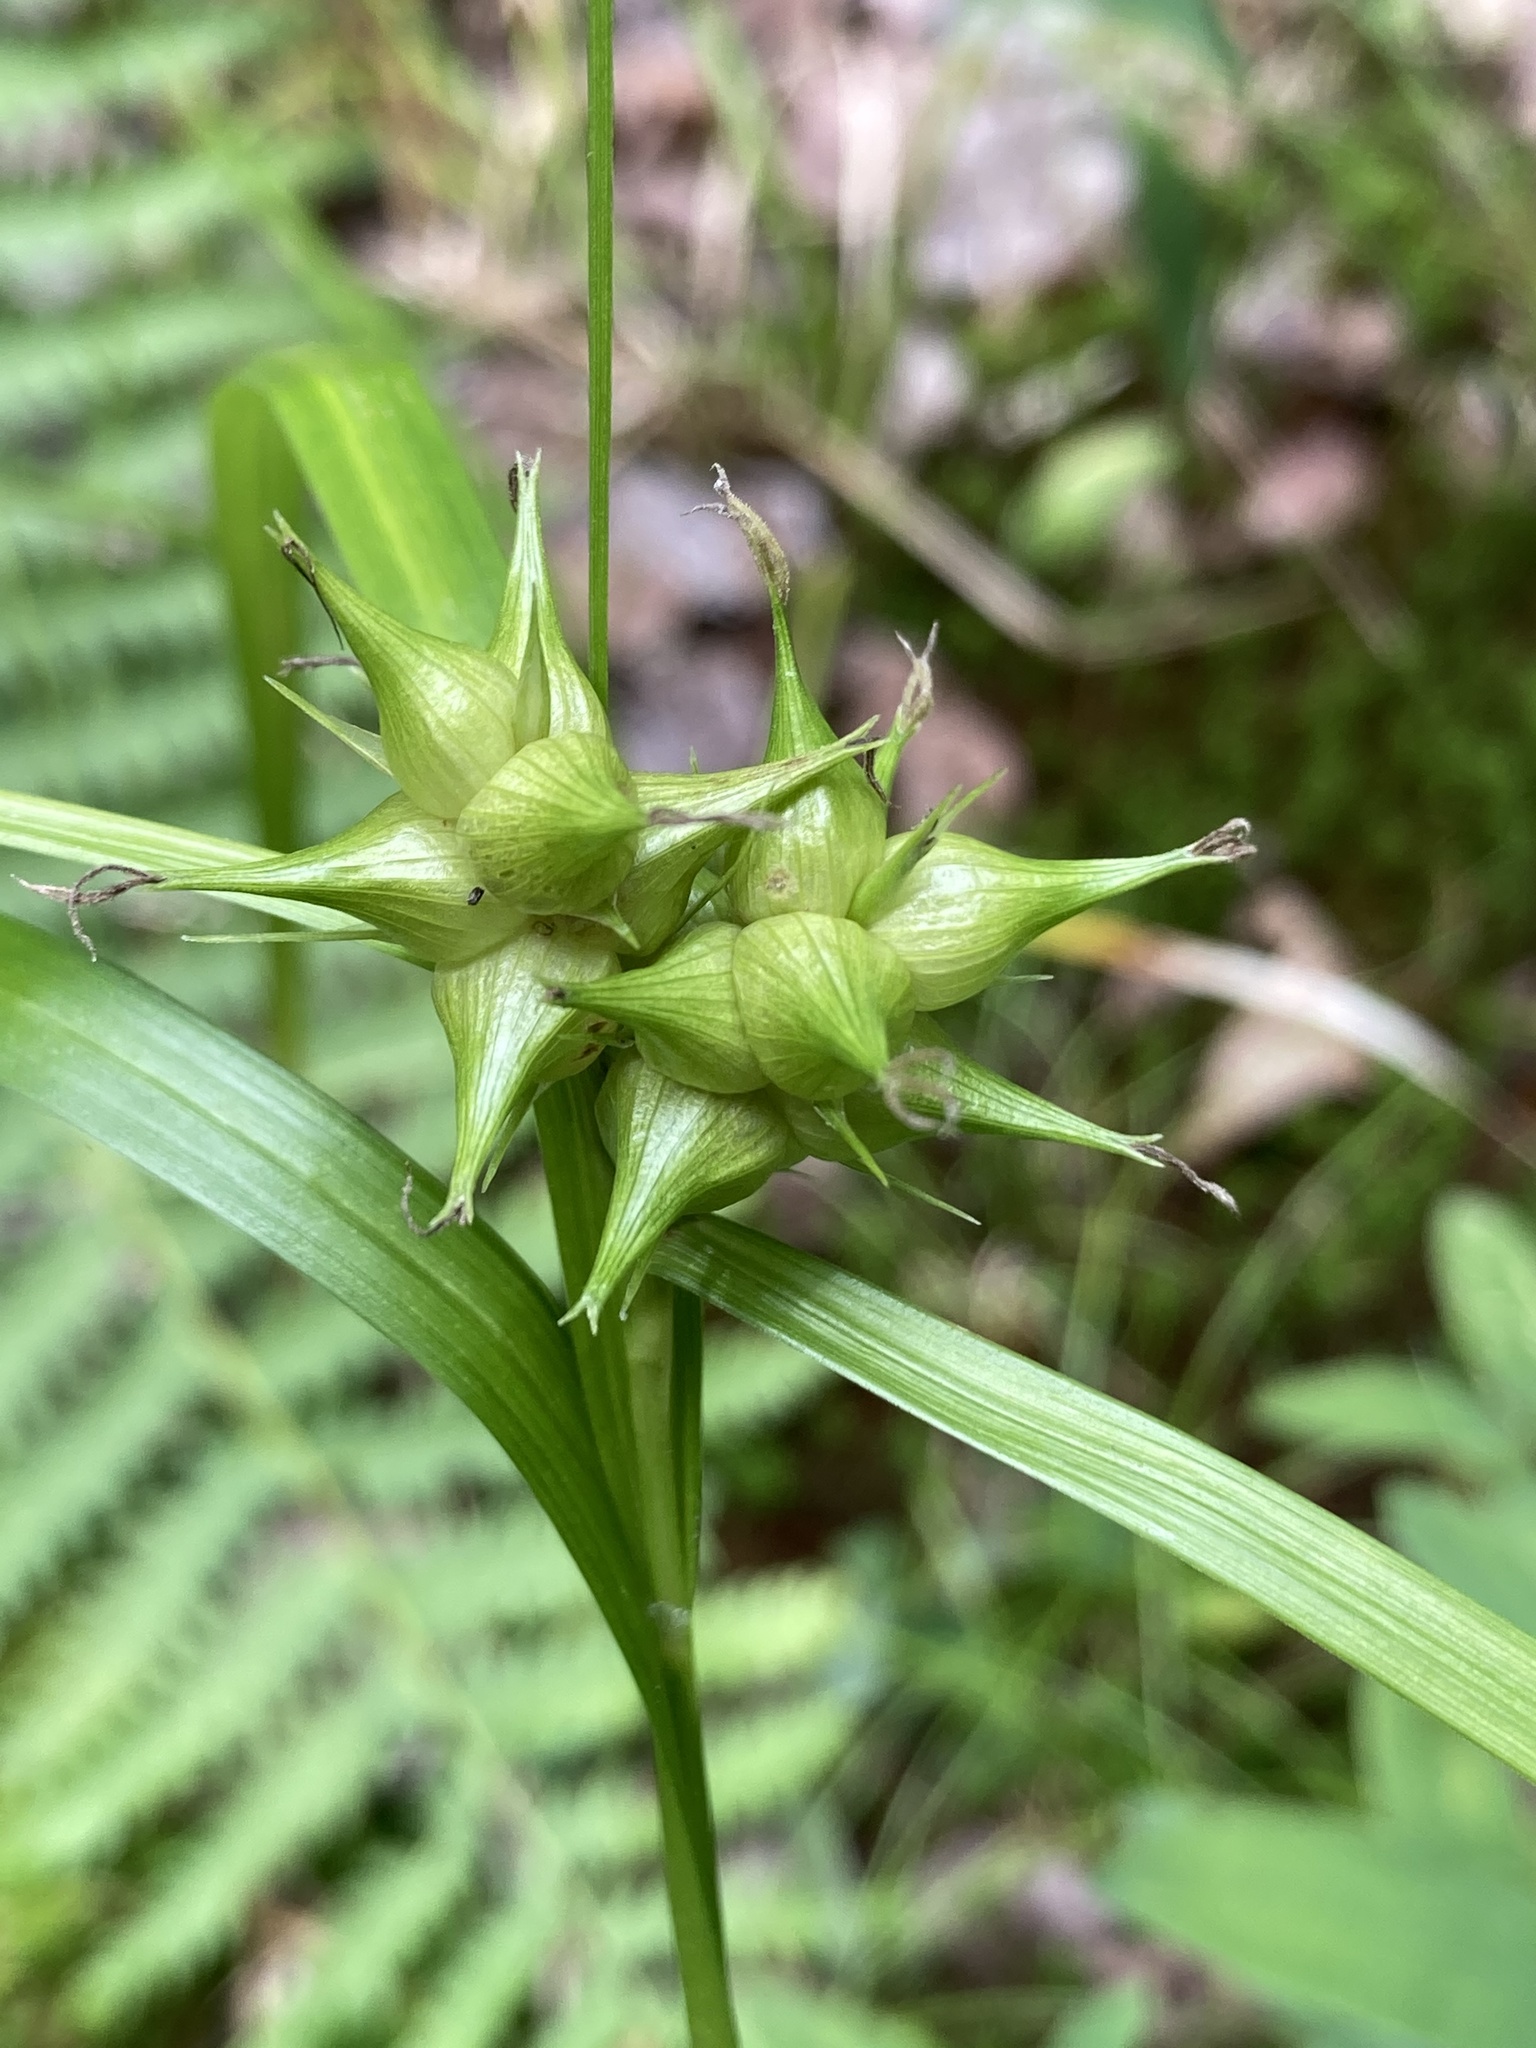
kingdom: Plantae
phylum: Tracheophyta
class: Liliopsida
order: Poales
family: Cyperaceae
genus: Carex
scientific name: Carex intumescens
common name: Greater bladder sedge
